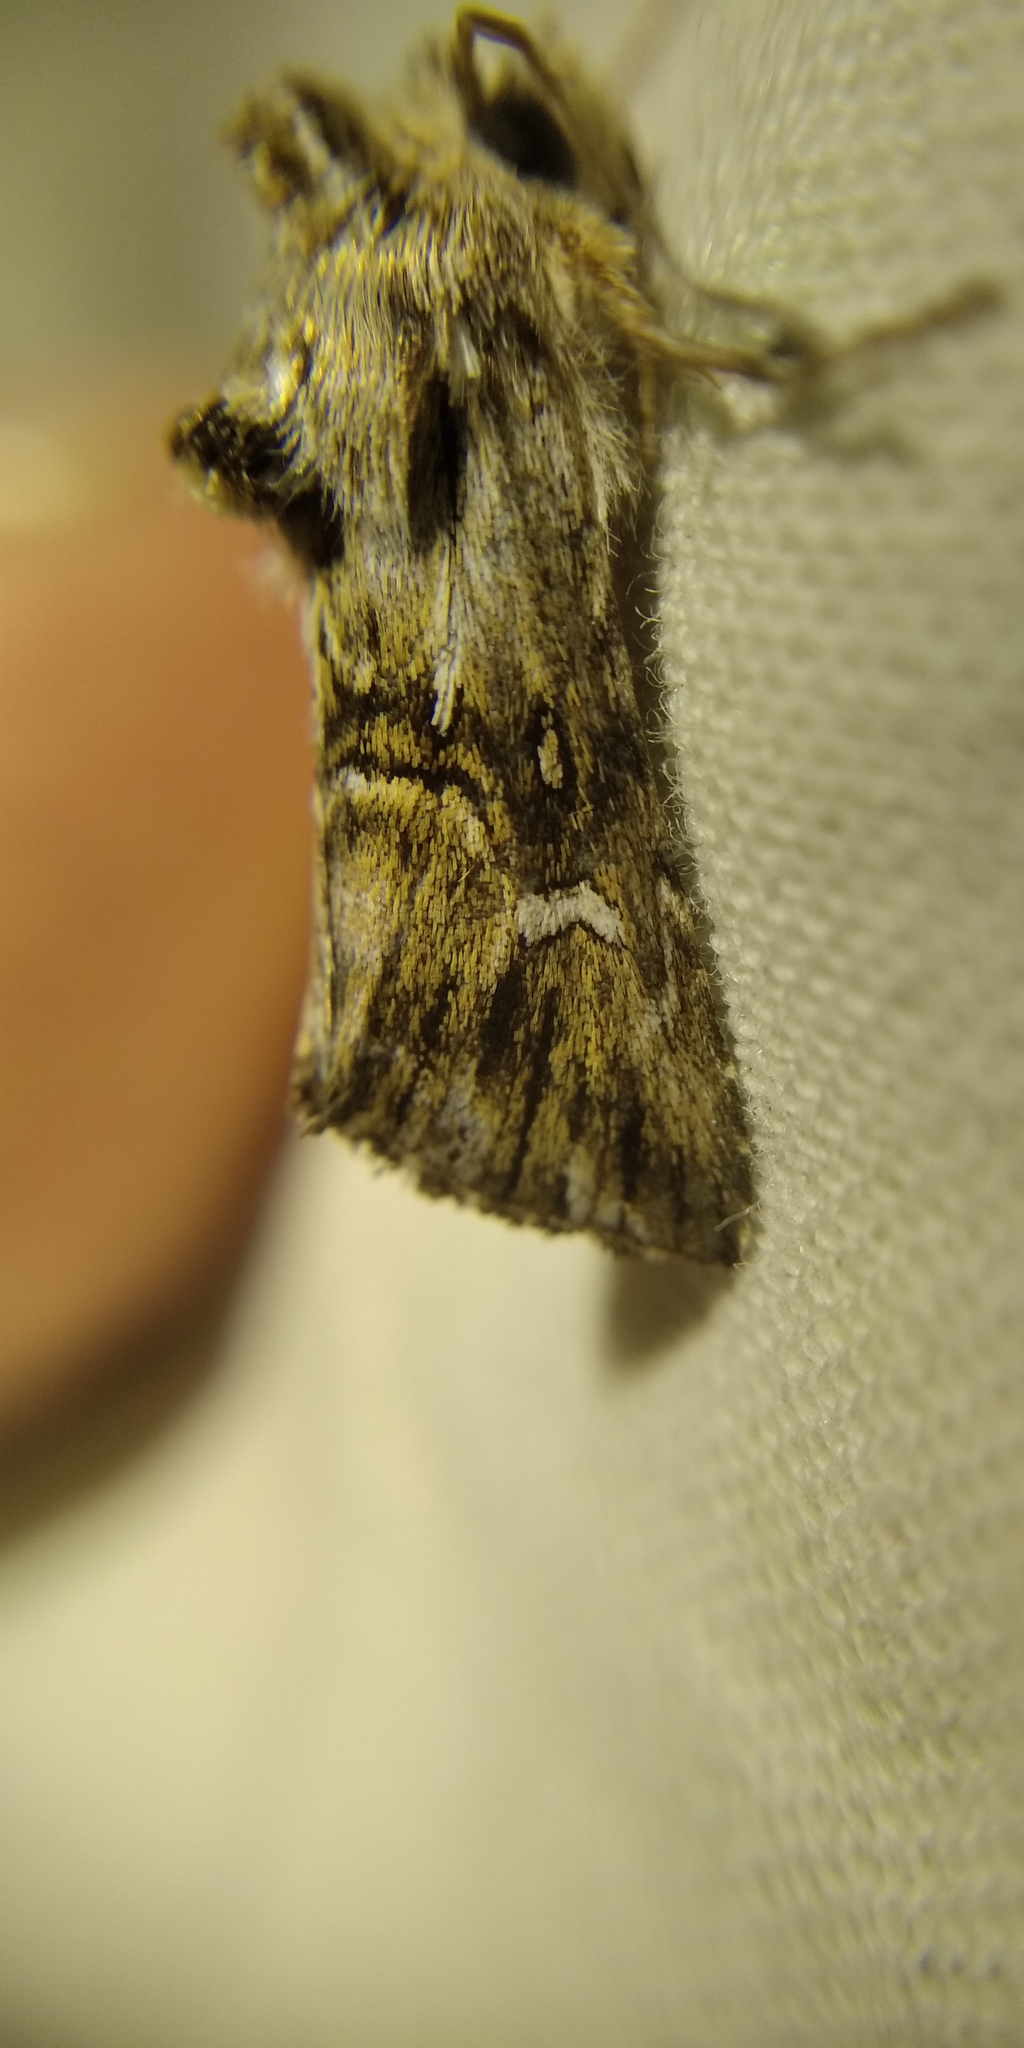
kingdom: Animalia
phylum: Arthropoda
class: Insecta
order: Lepidoptera
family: Noctuidae
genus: Calophasia
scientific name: Calophasia lunula
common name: Toadflax brocade
